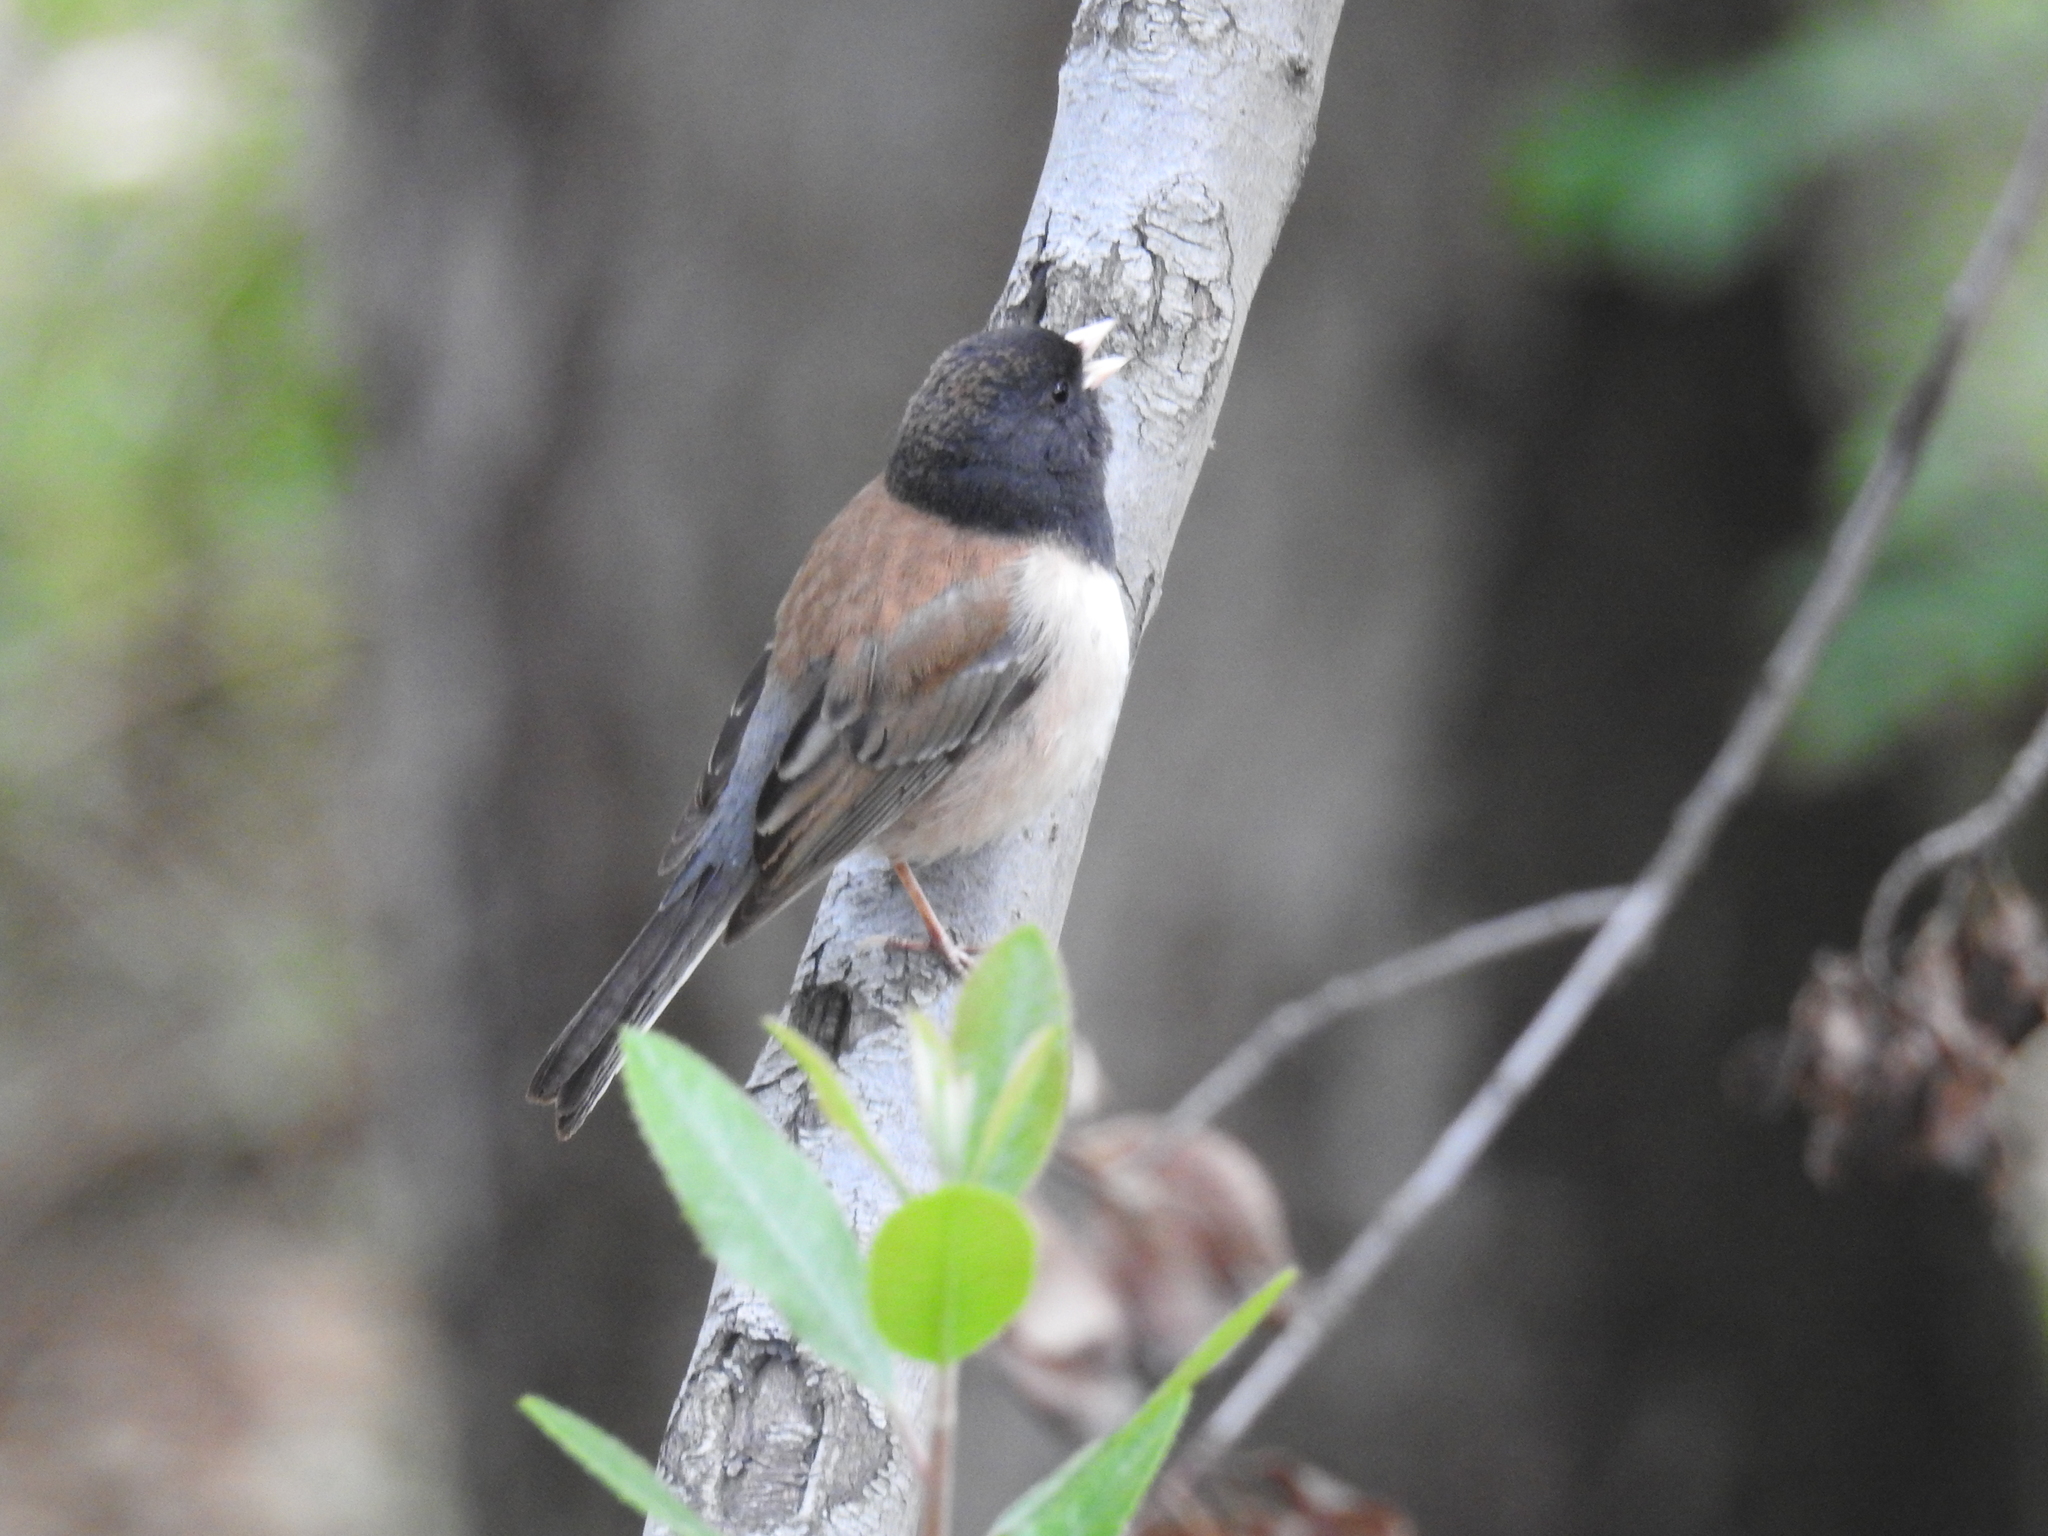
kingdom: Animalia
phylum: Chordata
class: Aves
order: Passeriformes
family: Passerellidae
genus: Junco
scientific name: Junco hyemalis
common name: Dark-eyed junco
